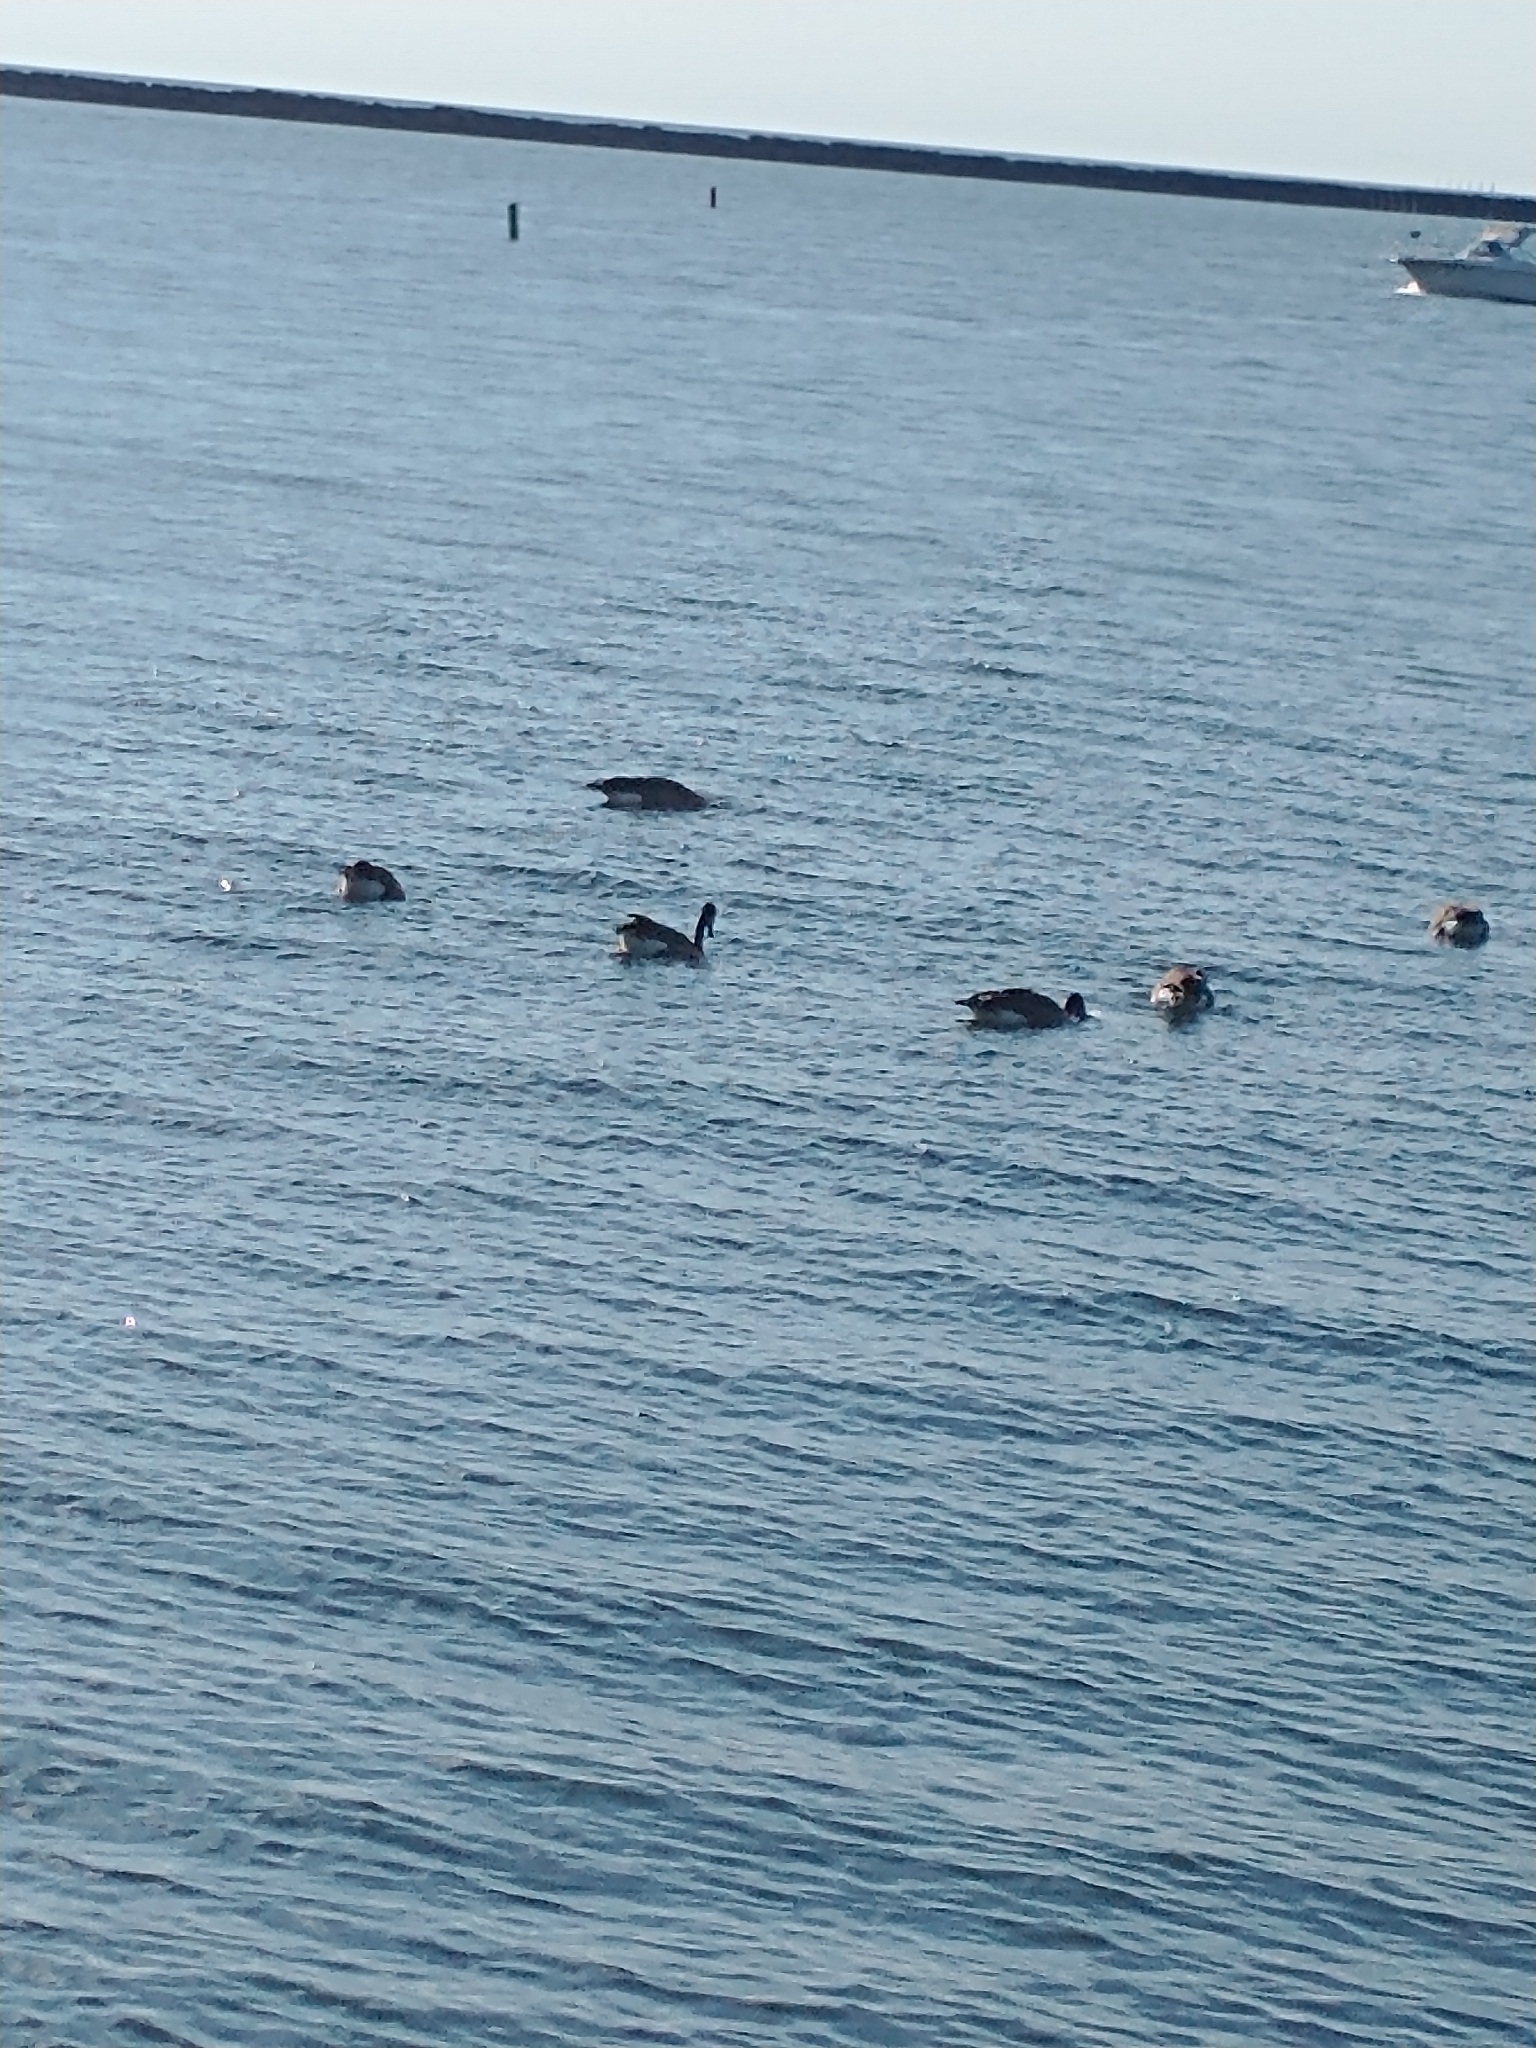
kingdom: Animalia
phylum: Chordata
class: Aves
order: Anseriformes
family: Anatidae
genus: Branta
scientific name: Branta canadensis
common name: Canada goose
